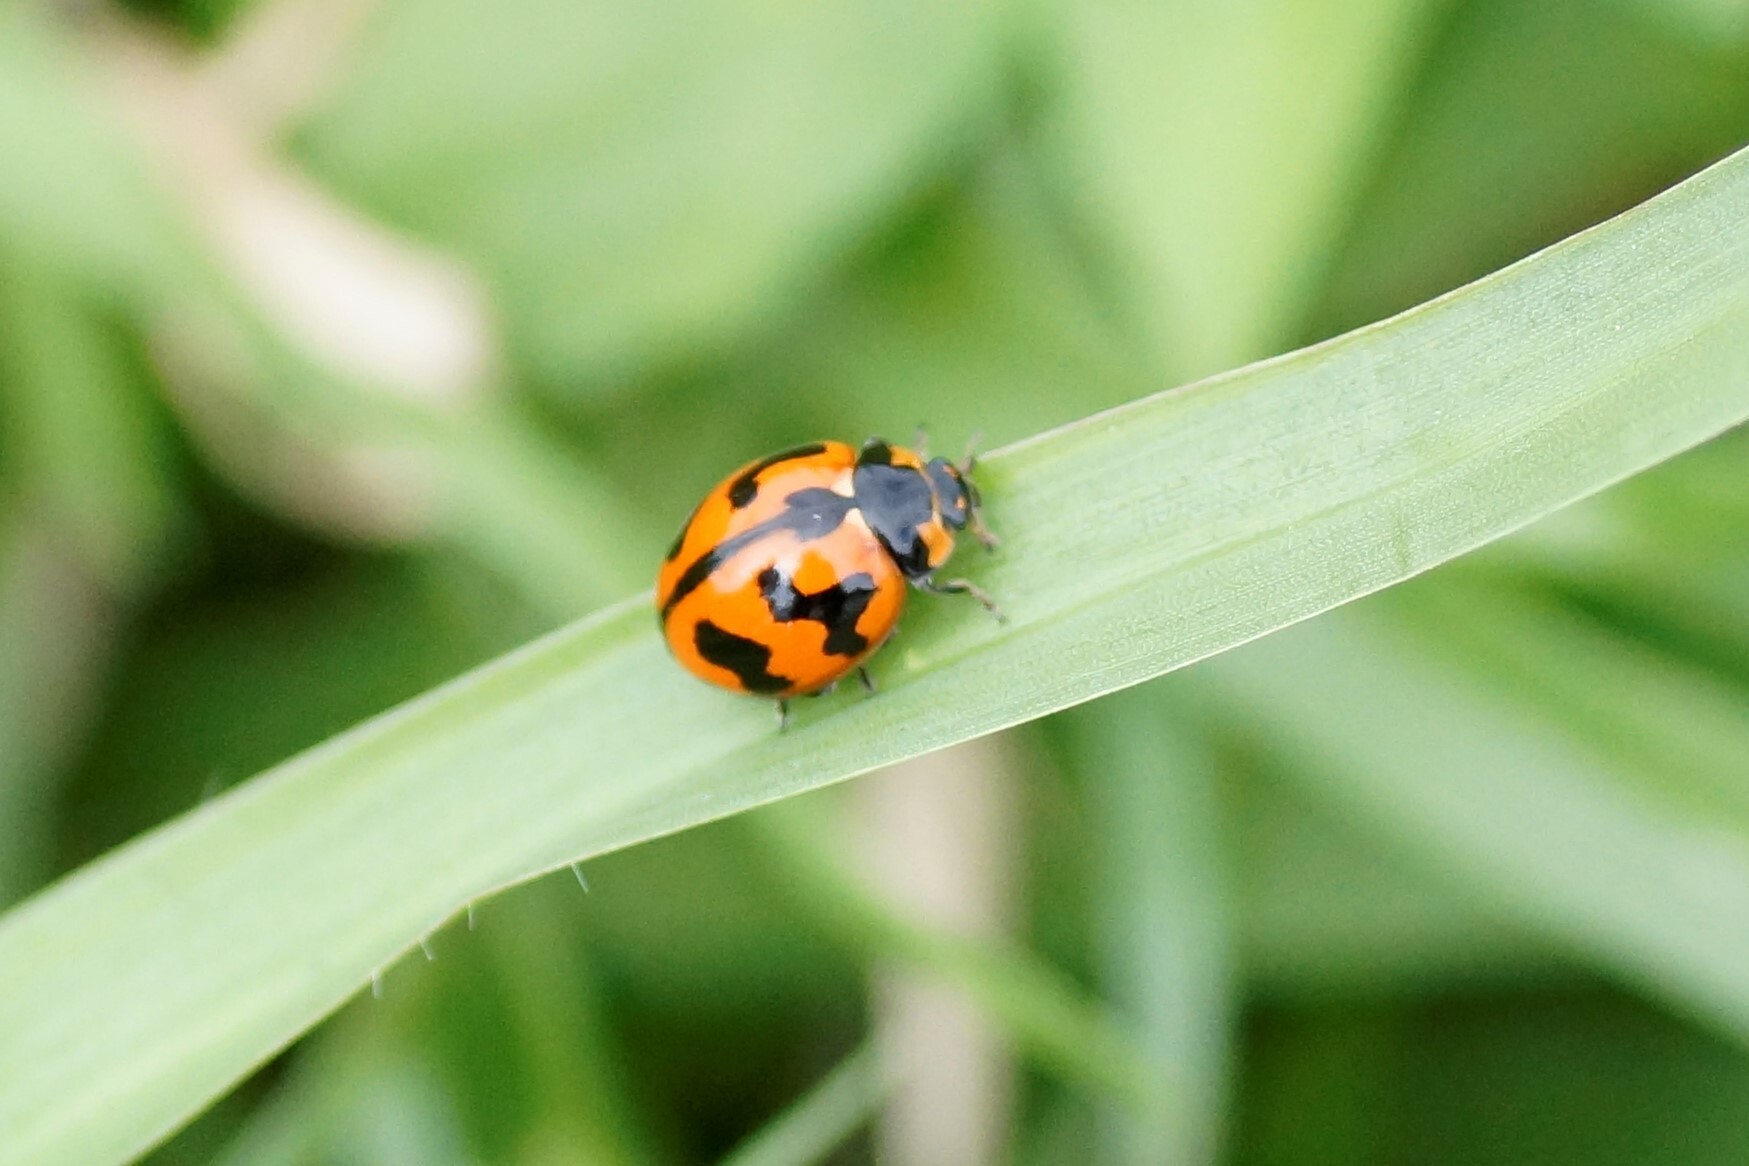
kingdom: Animalia
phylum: Arthropoda
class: Insecta
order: Coleoptera
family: Coccinellidae
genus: Coccinella
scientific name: Coccinella transversalis
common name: Transverse lady beetle
